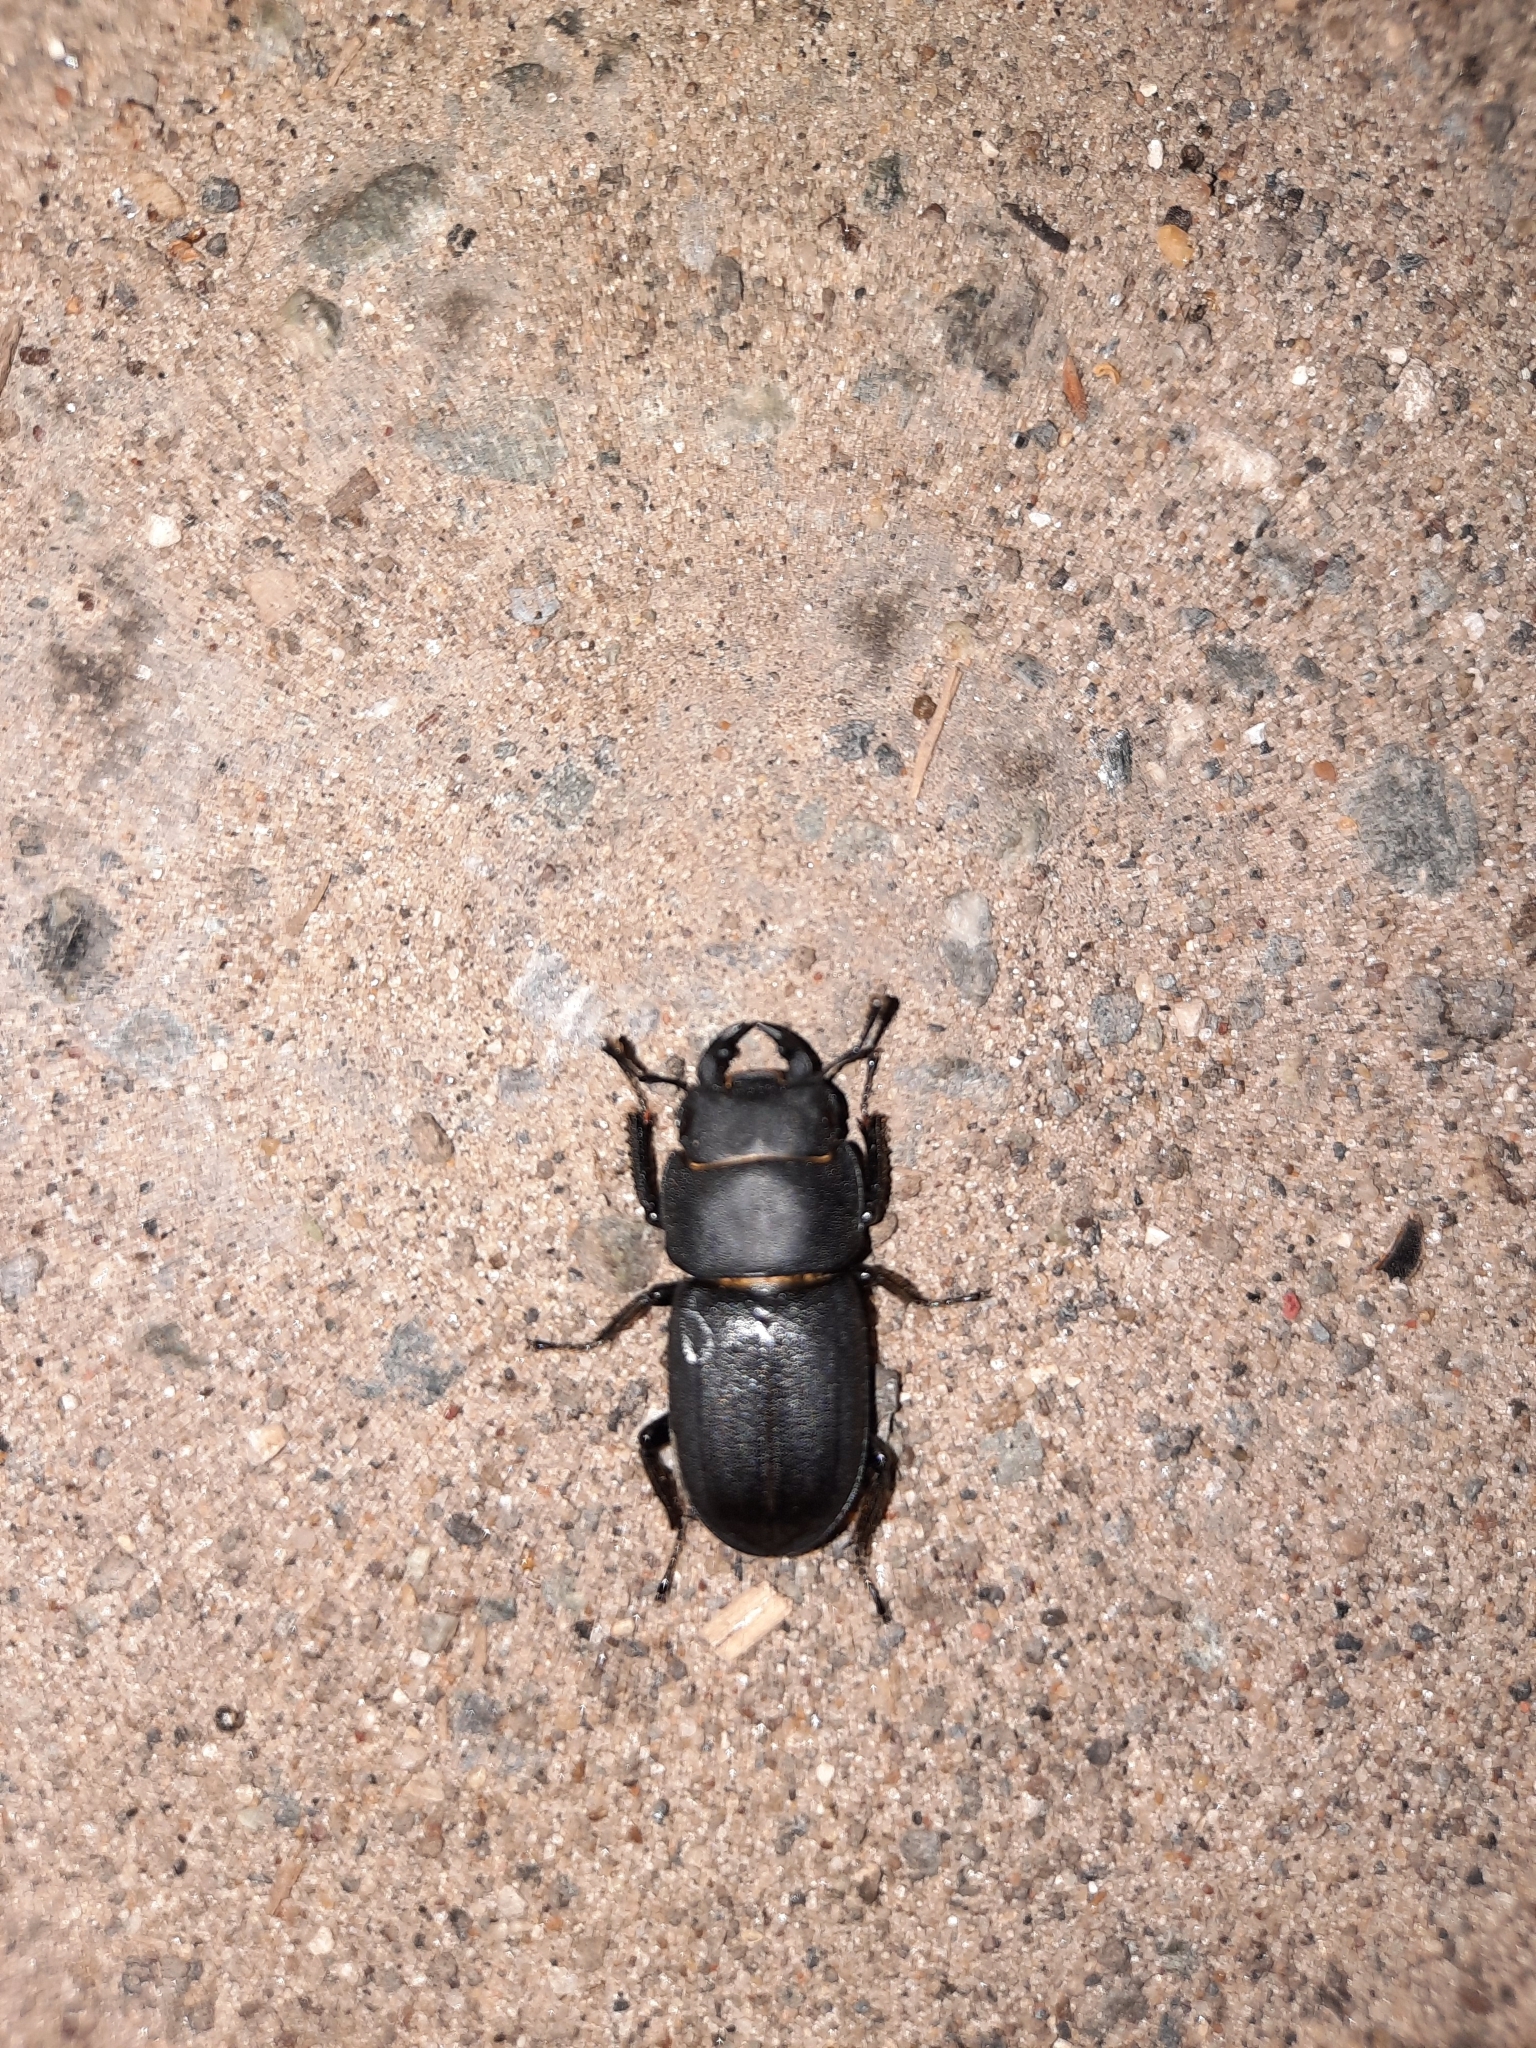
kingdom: Animalia
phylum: Arthropoda
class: Insecta
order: Coleoptera
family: Lucanidae
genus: Dorcus
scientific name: Dorcus parallelipipedus
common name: Lesser stag beetle
